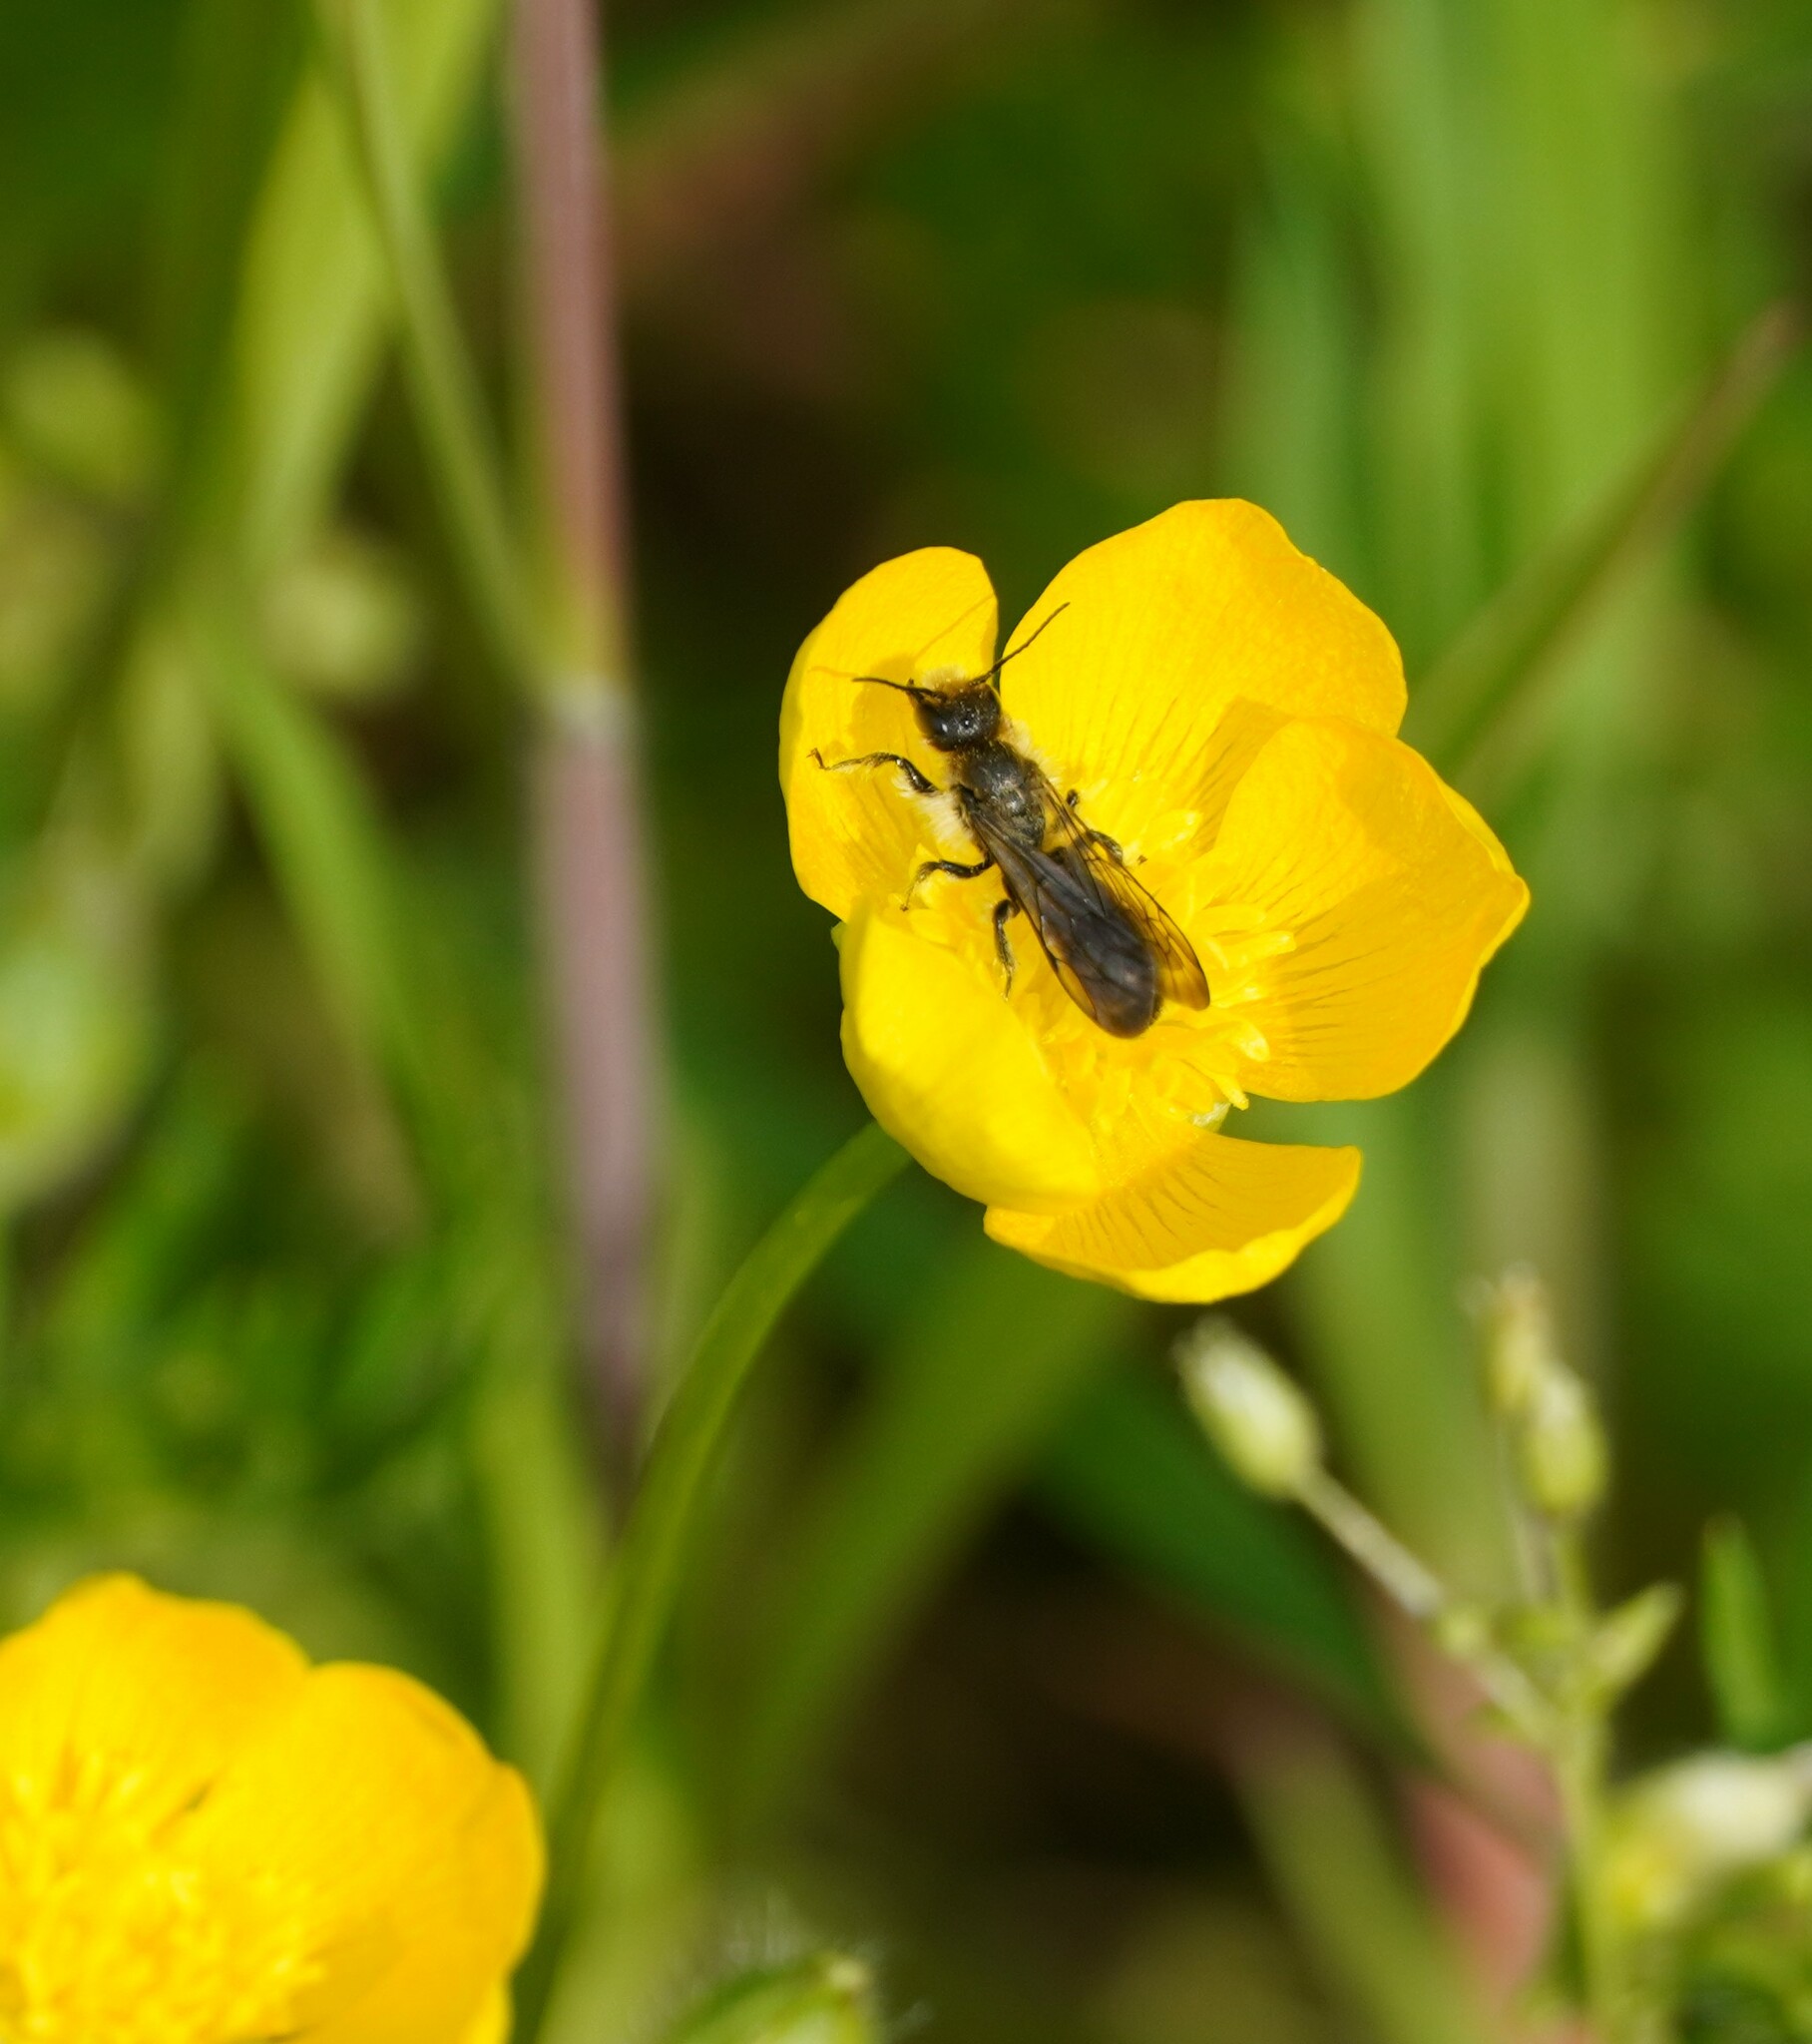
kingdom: Animalia
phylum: Arthropoda
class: Insecta
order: Hymenoptera
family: Megachilidae
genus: Chelostoma
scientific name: Chelostoma florisomne
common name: Sleepy carpenter bee
